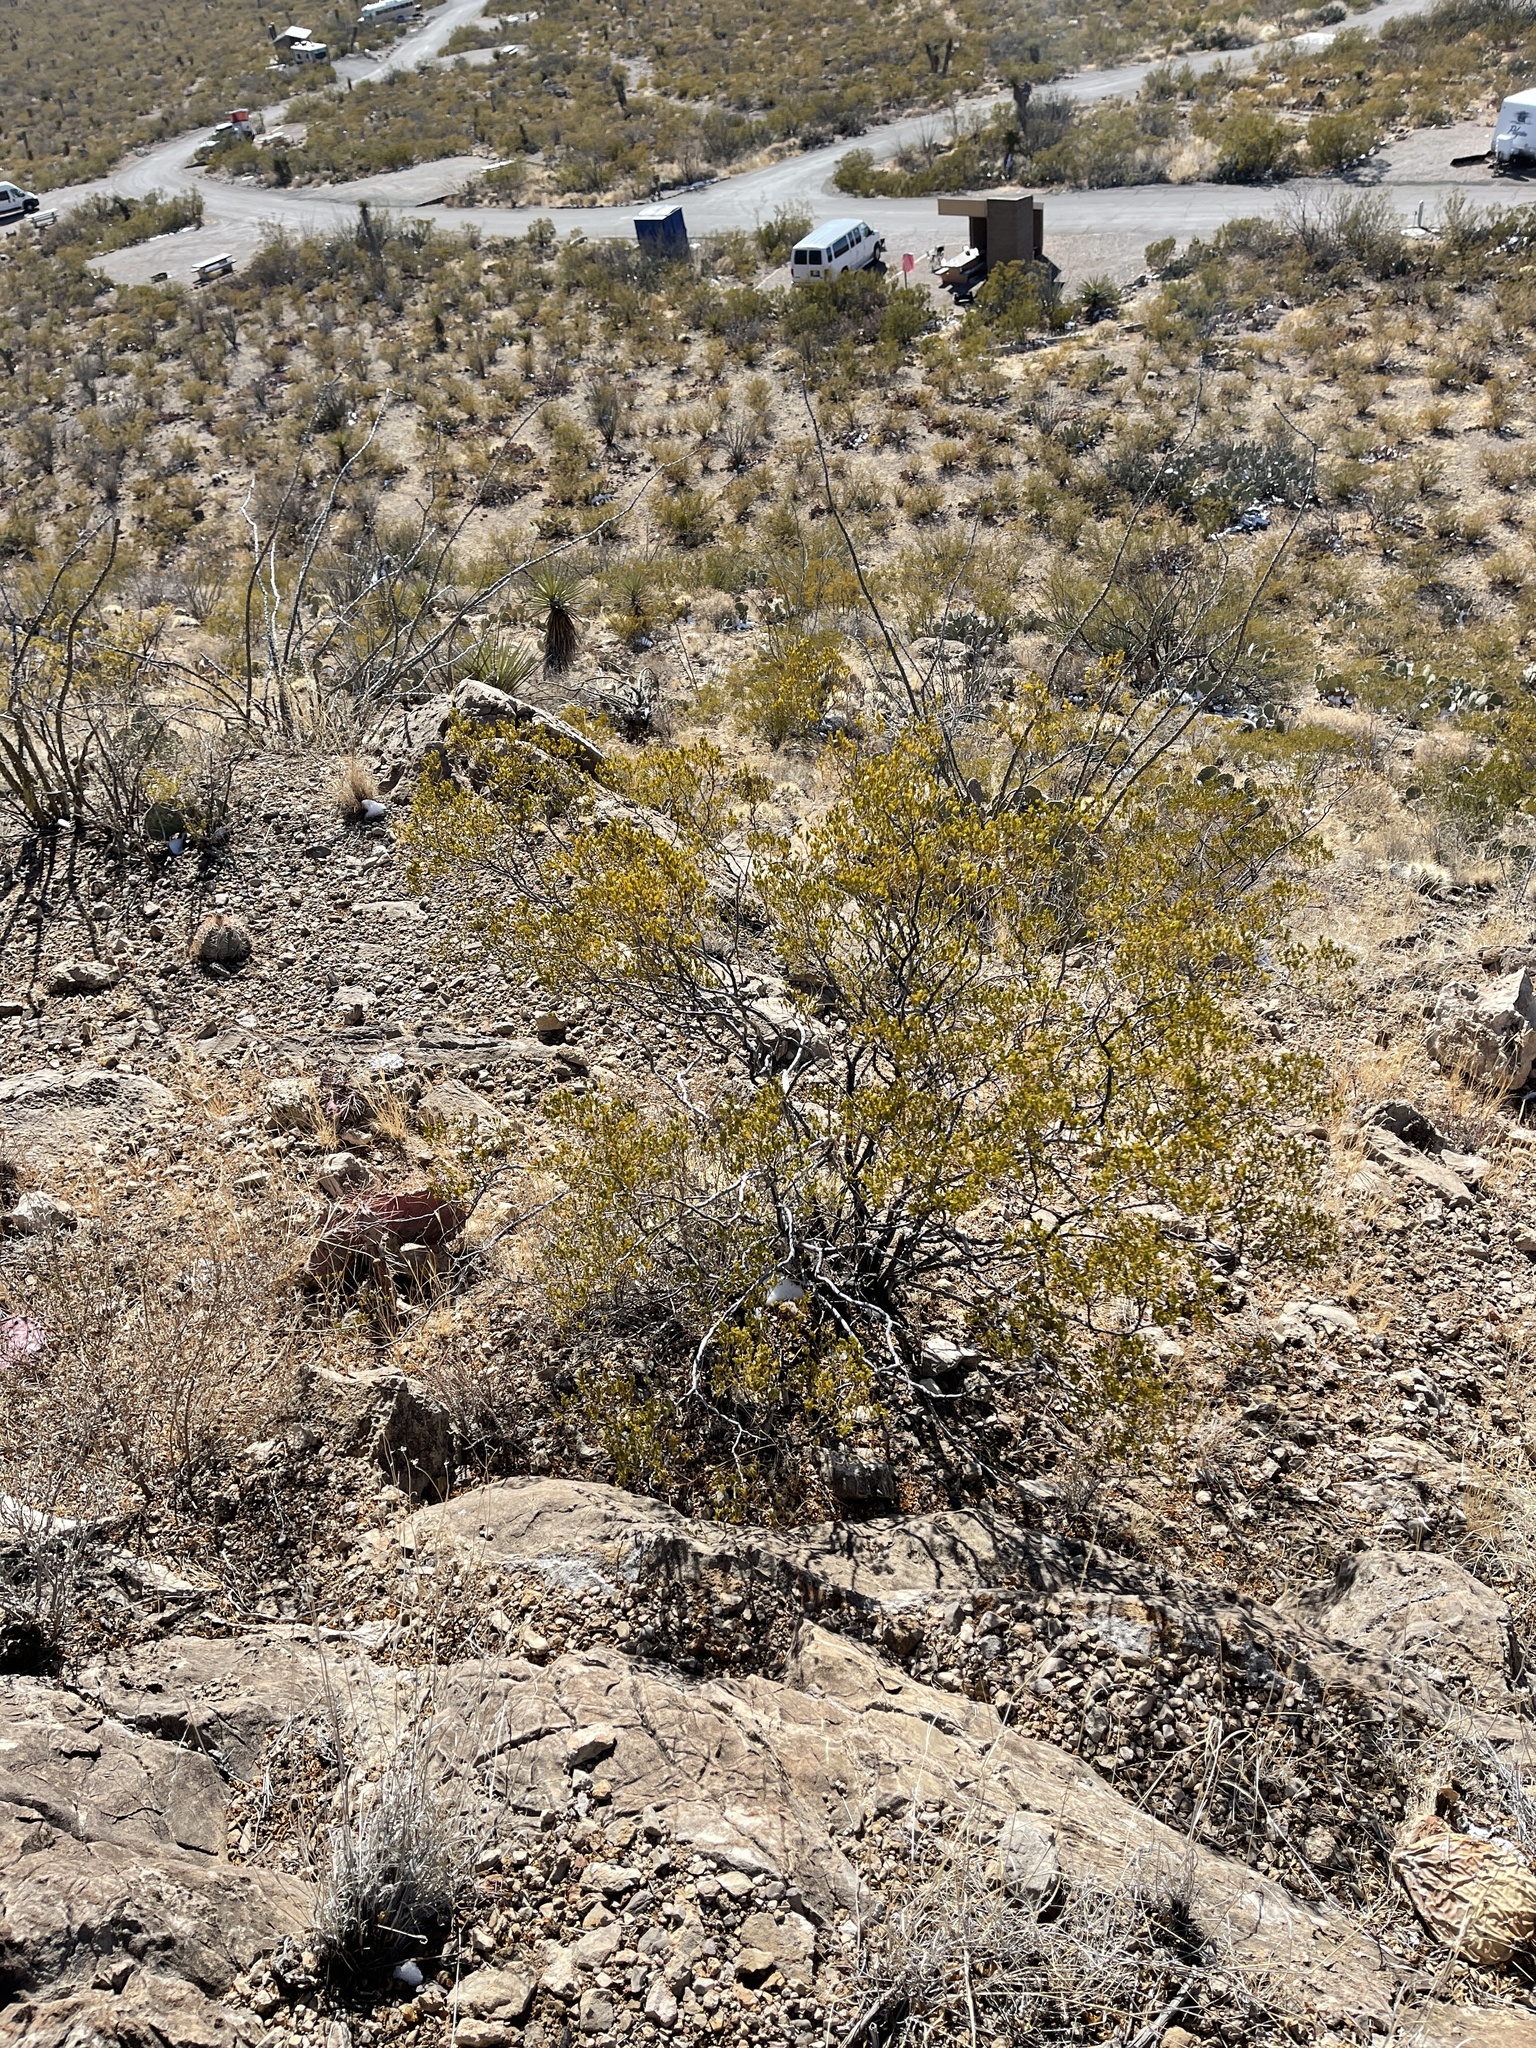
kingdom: Plantae
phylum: Tracheophyta
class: Magnoliopsida
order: Zygophyllales
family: Zygophyllaceae
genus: Larrea
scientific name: Larrea tridentata
